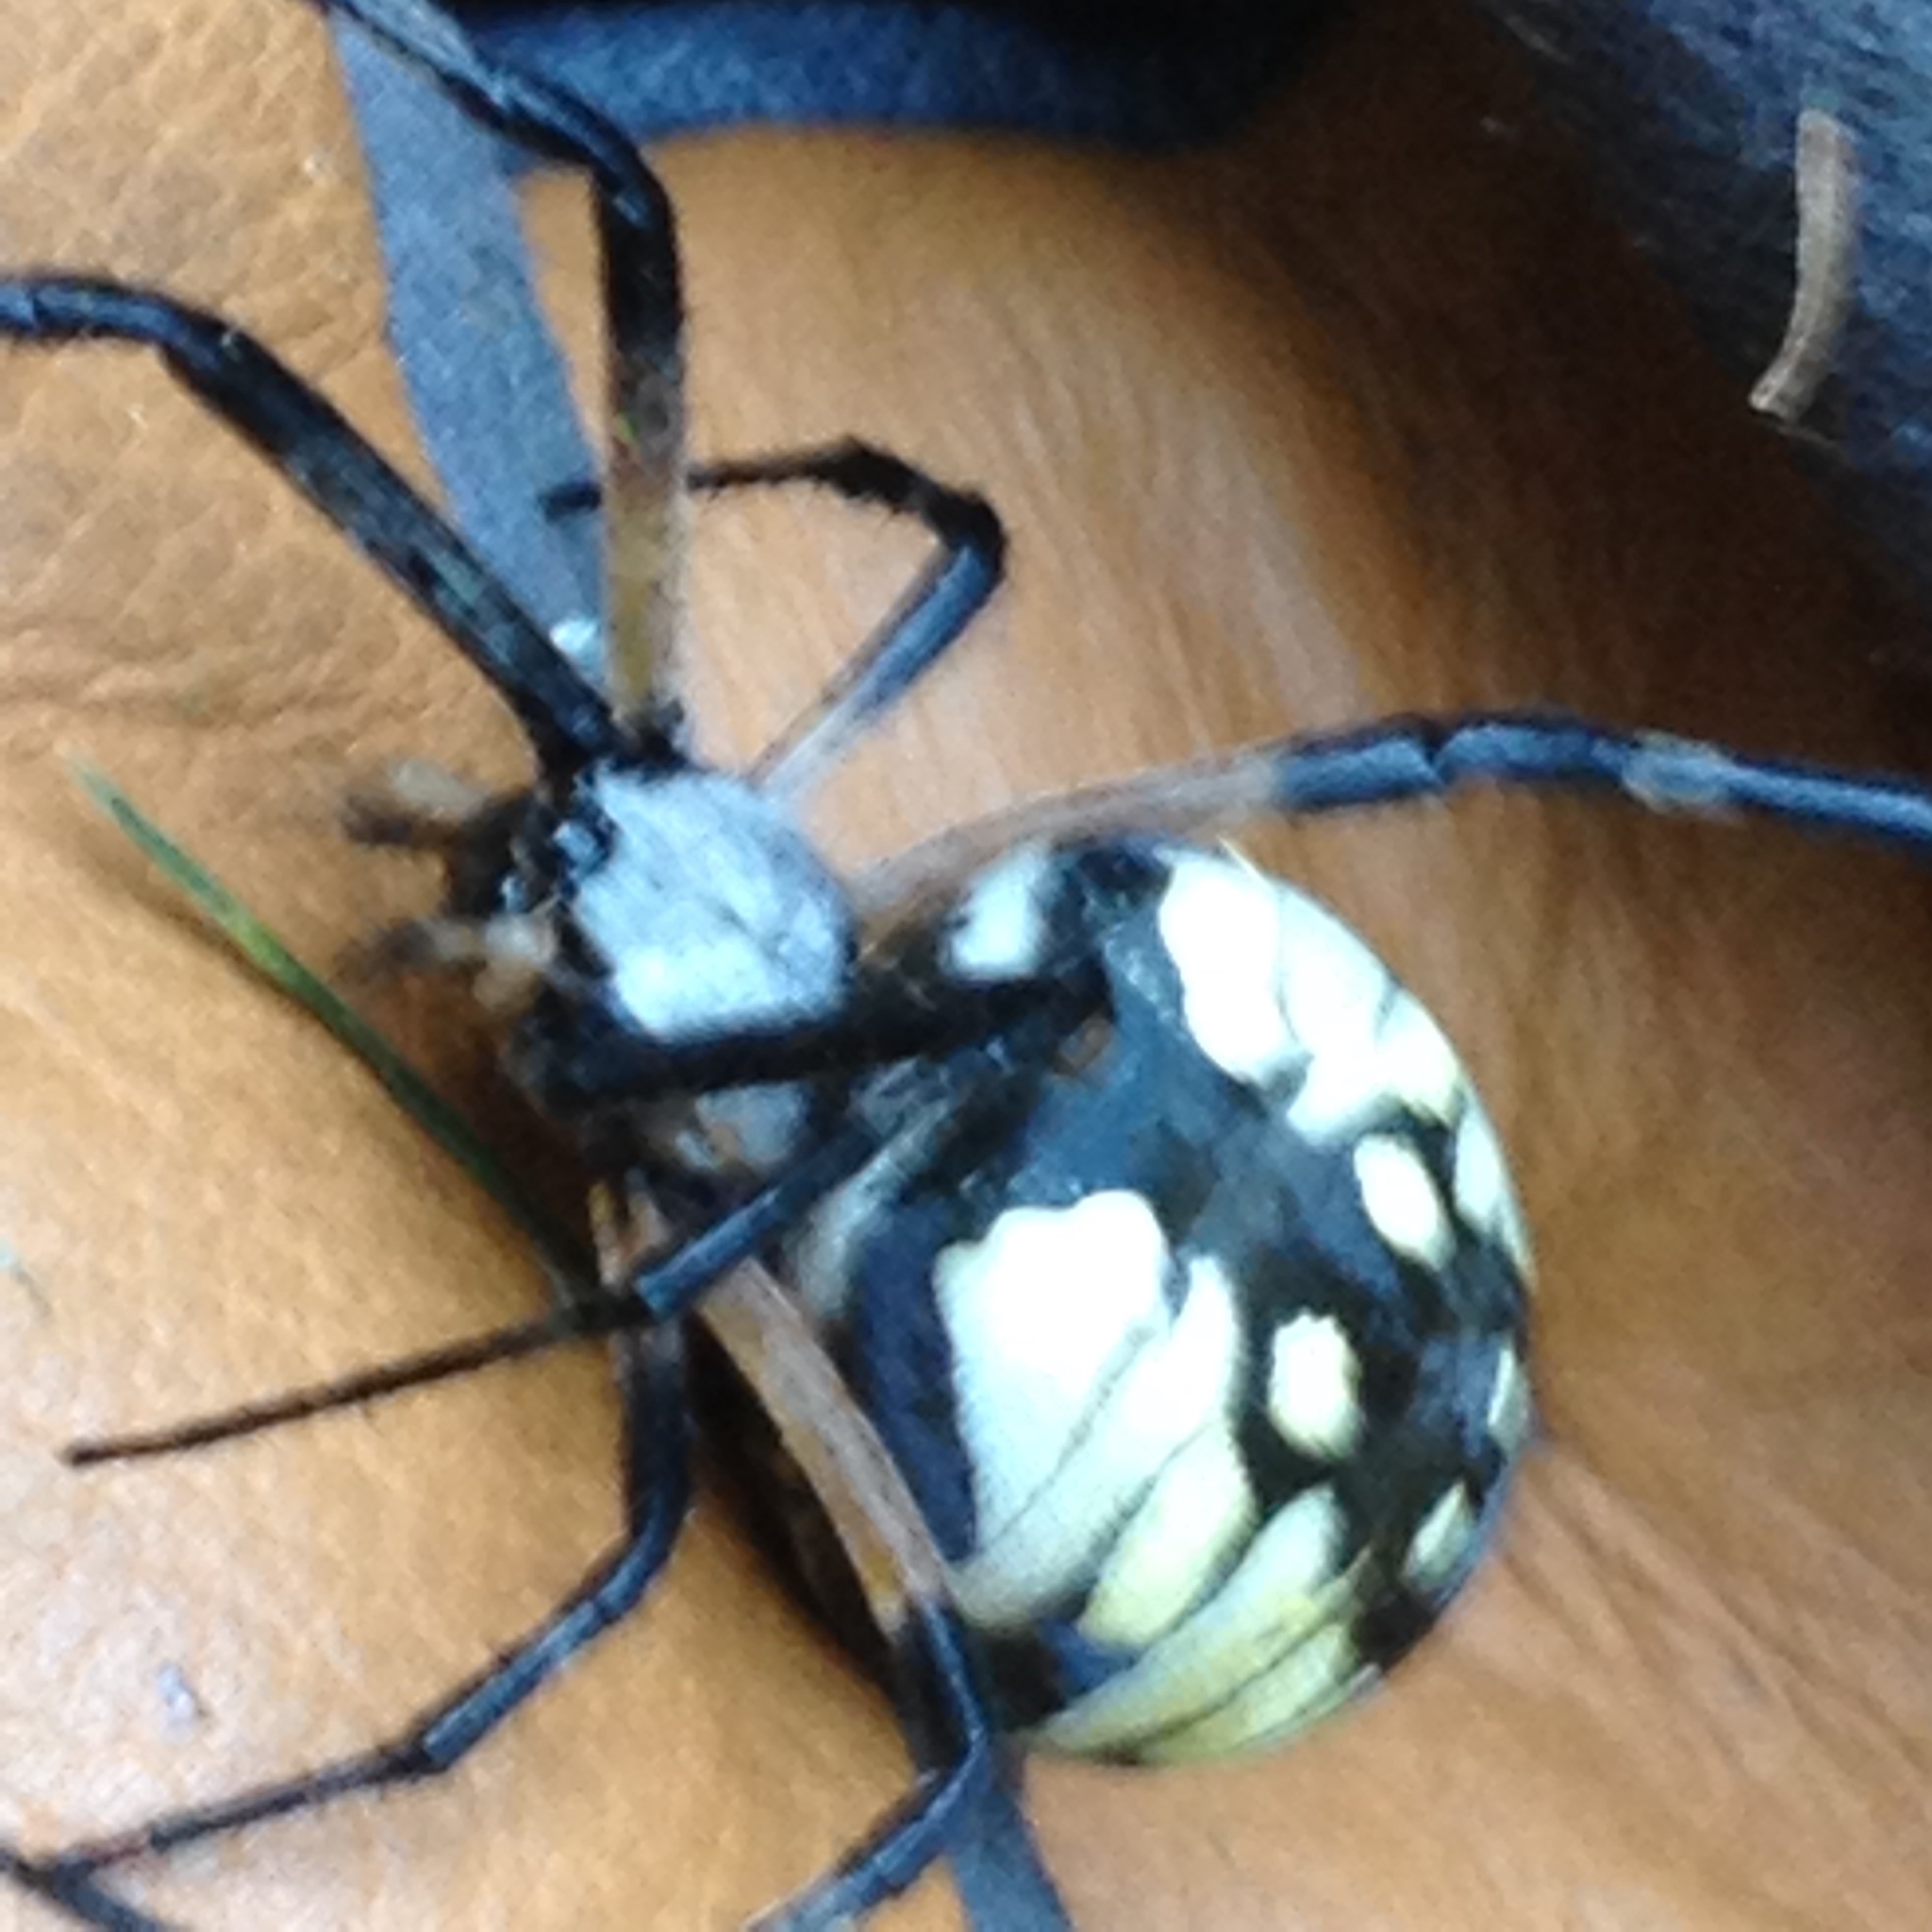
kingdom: Animalia
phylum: Arthropoda
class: Arachnida
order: Araneae
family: Araneidae
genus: Argiope
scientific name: Argiope aurantia
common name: Orb weavers
